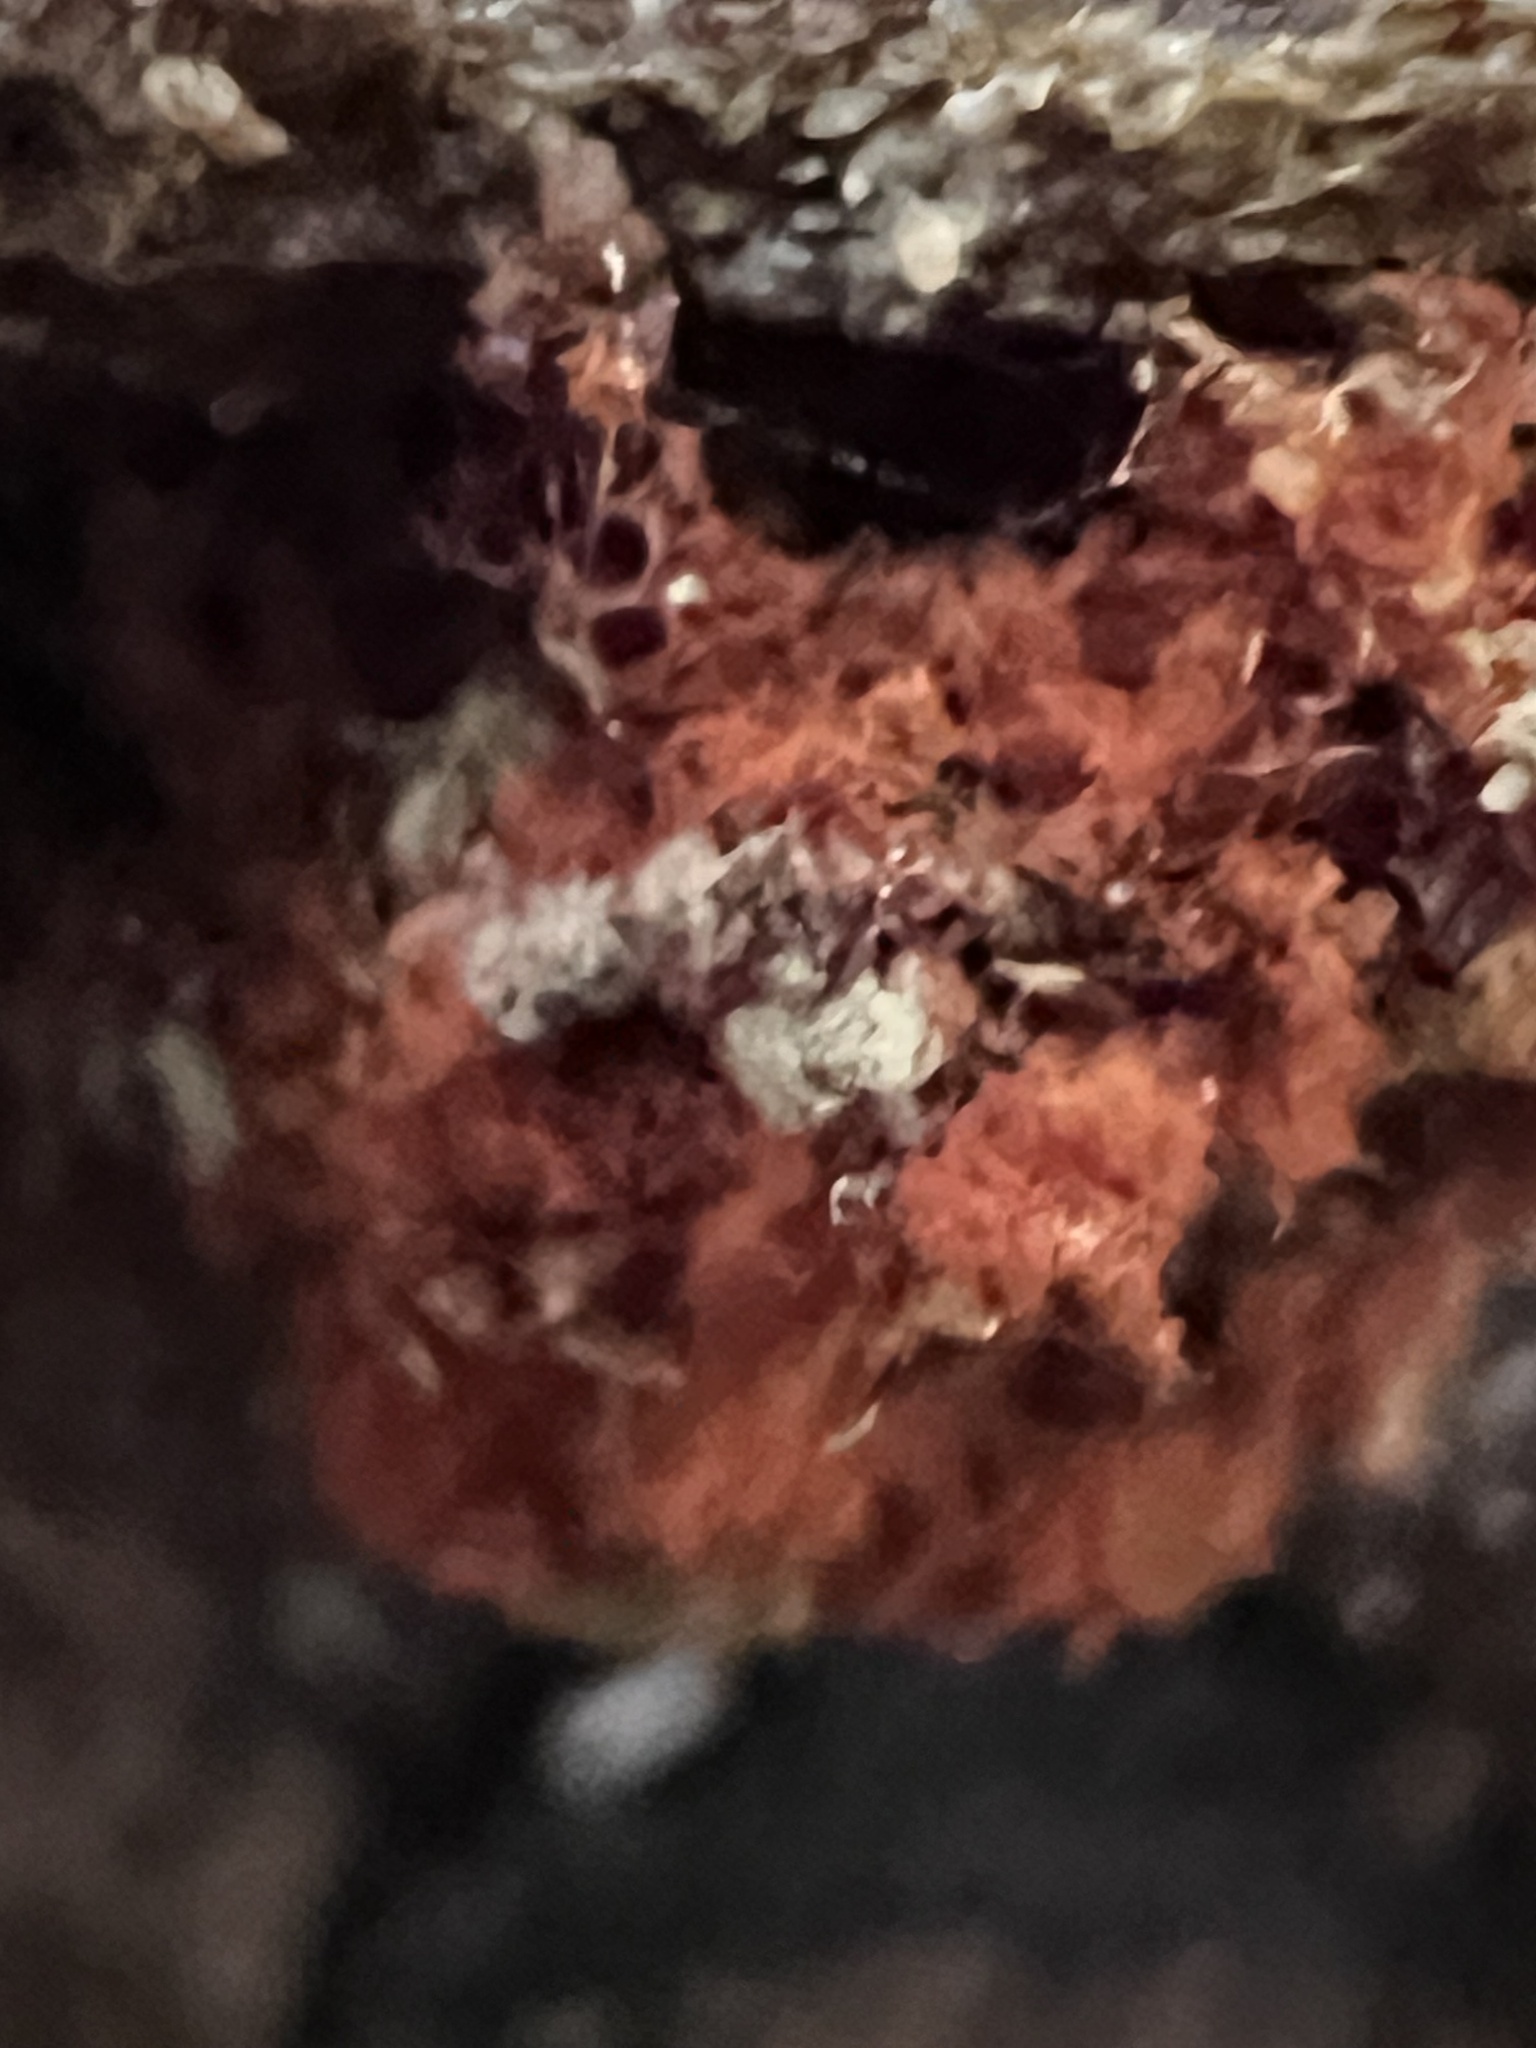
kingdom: Protozoa
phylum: Mycetozoa
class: Myxomycetes
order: Trichiales
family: Trichiaceae
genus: Metatrichia
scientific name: Metatrichia vesparia
